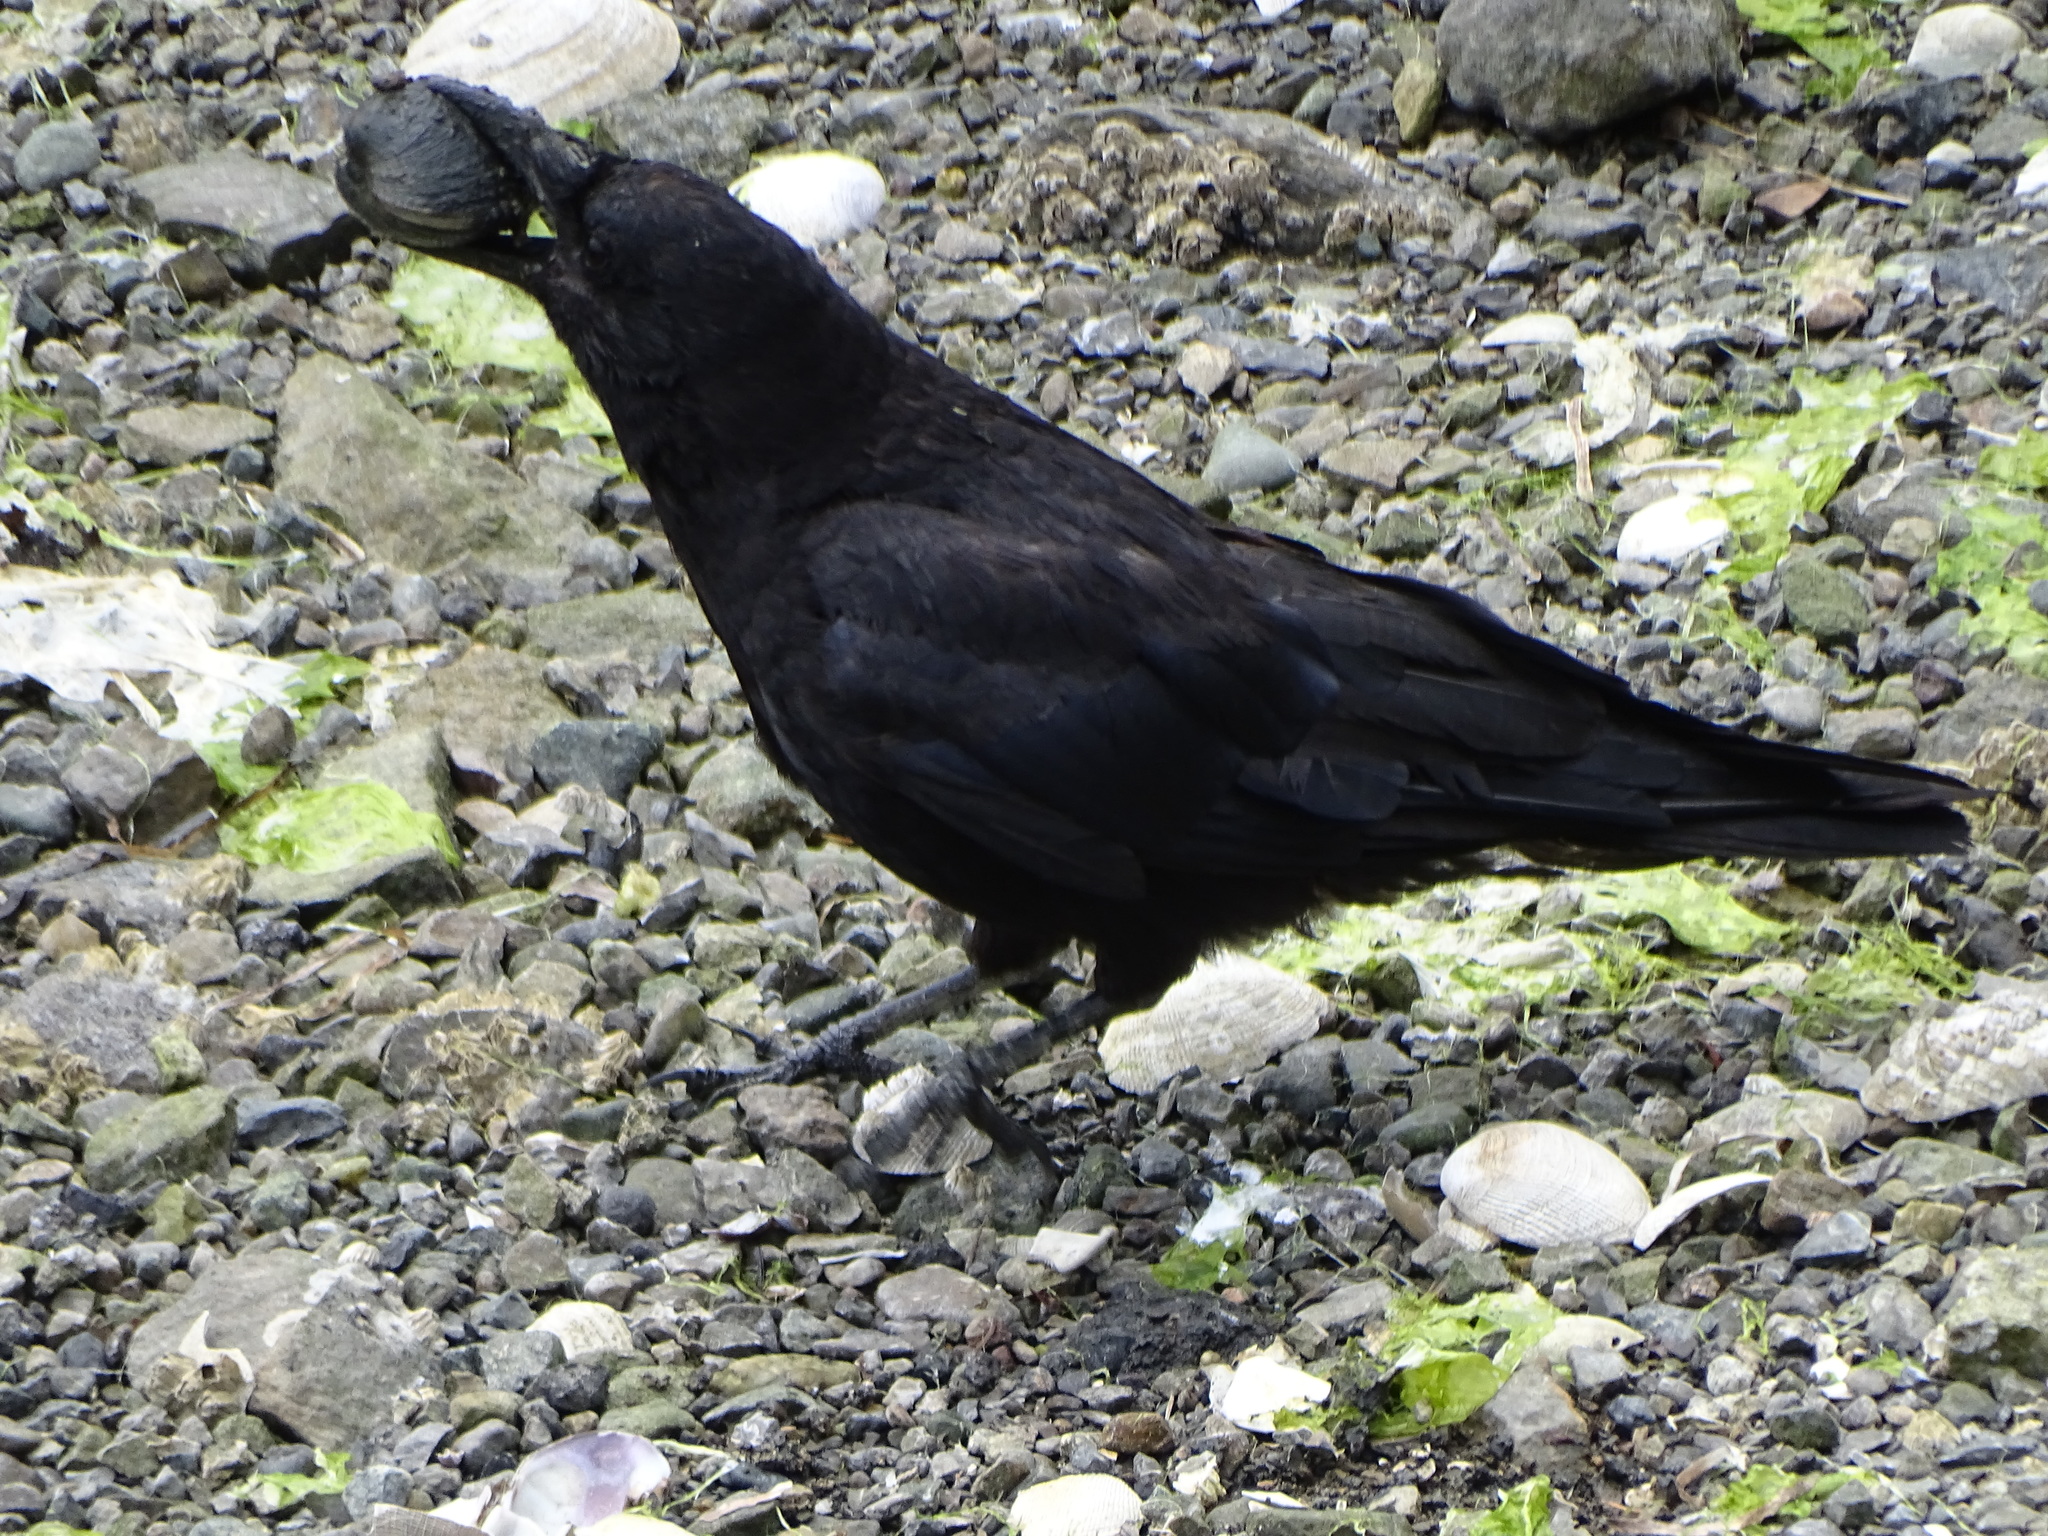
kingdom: Animalia
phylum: Chordata
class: Aves
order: Passeriformes
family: Corvidae
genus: Corvus
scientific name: Corvus brachyrhynchos
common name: American crow
